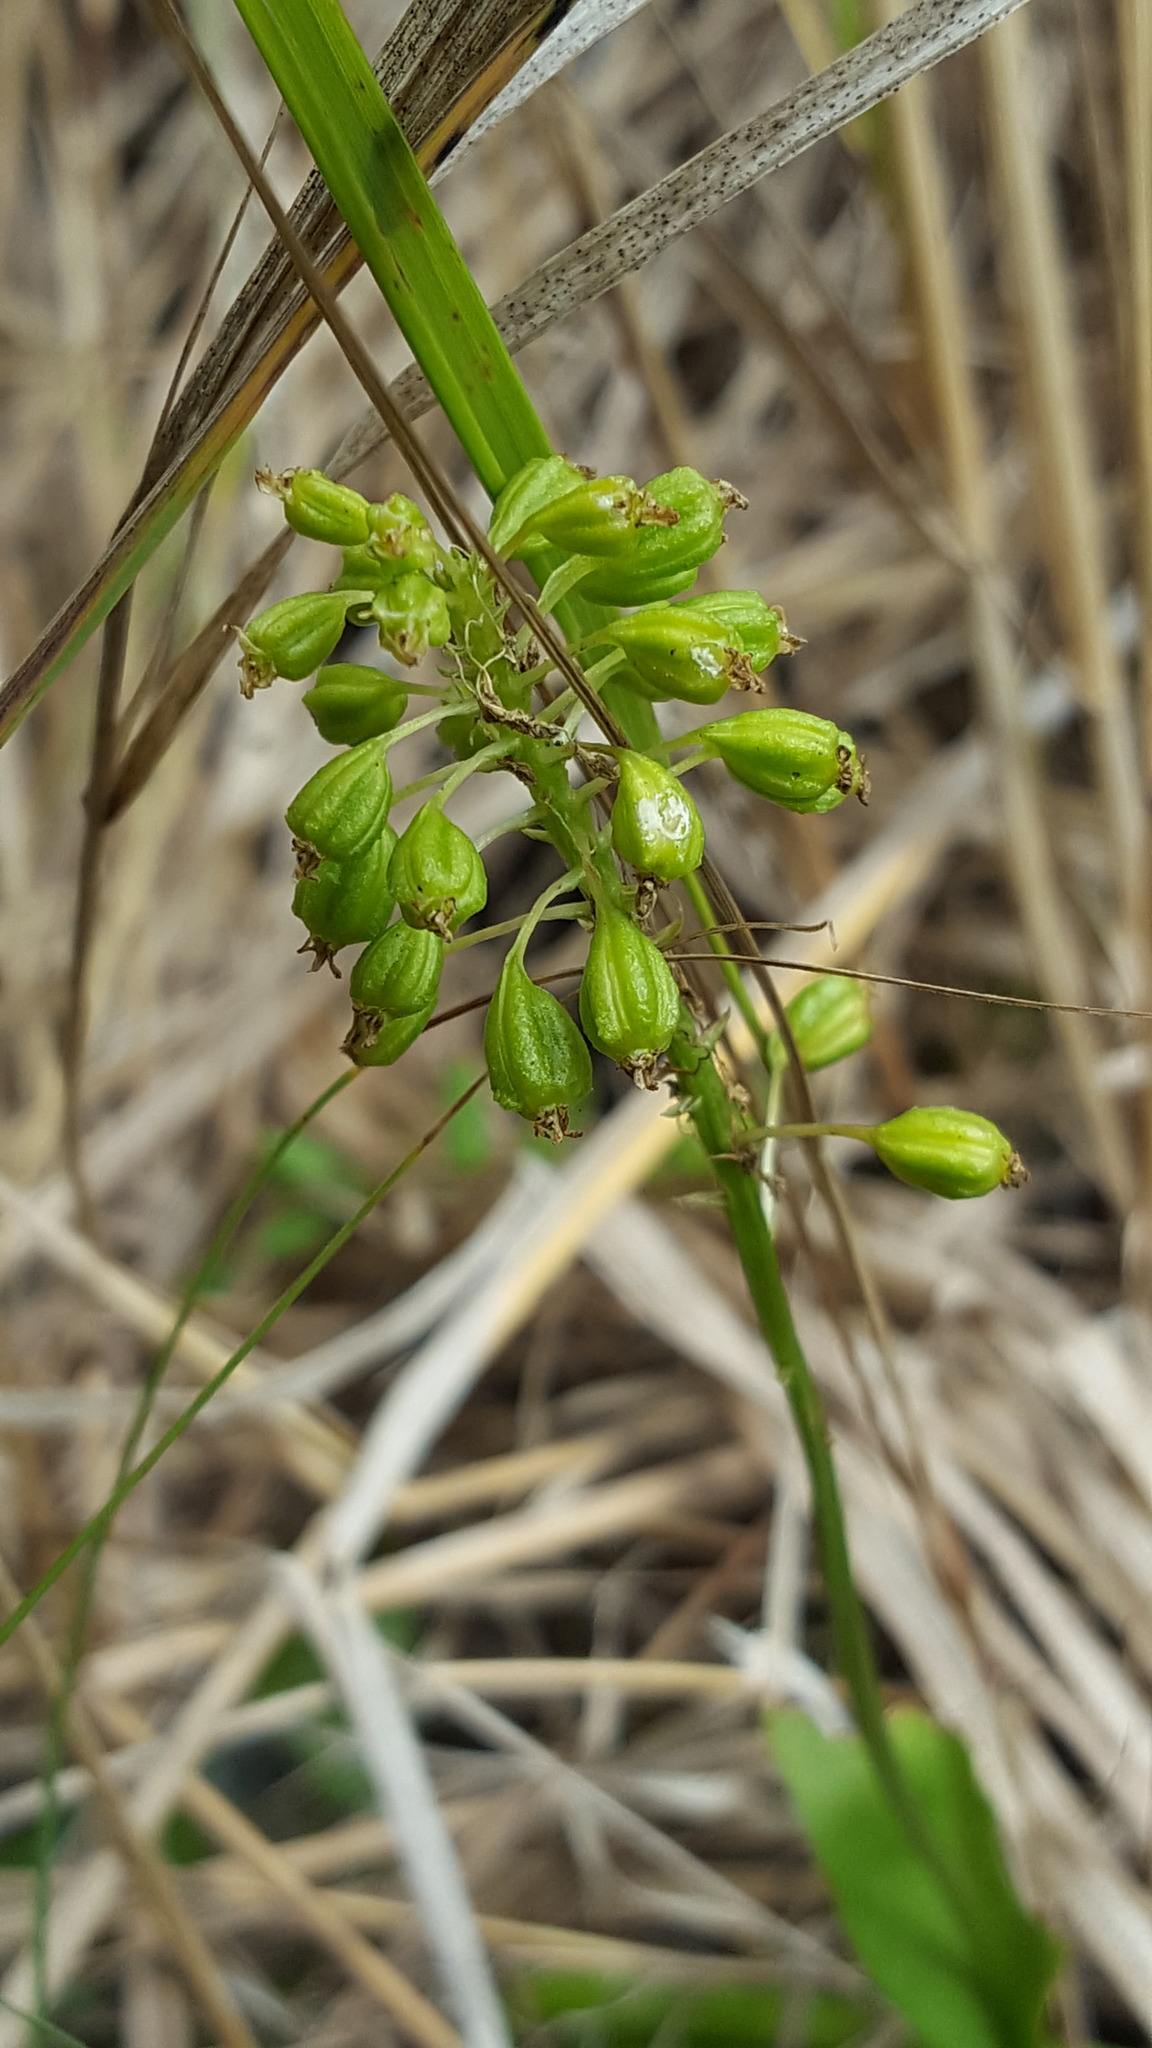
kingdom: Plantae
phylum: Tracheophyta
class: Liliopsida
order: Asparagales
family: Orchidaceae
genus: Malaxis
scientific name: Malaxis unifolia
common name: Green adder's-mouth
